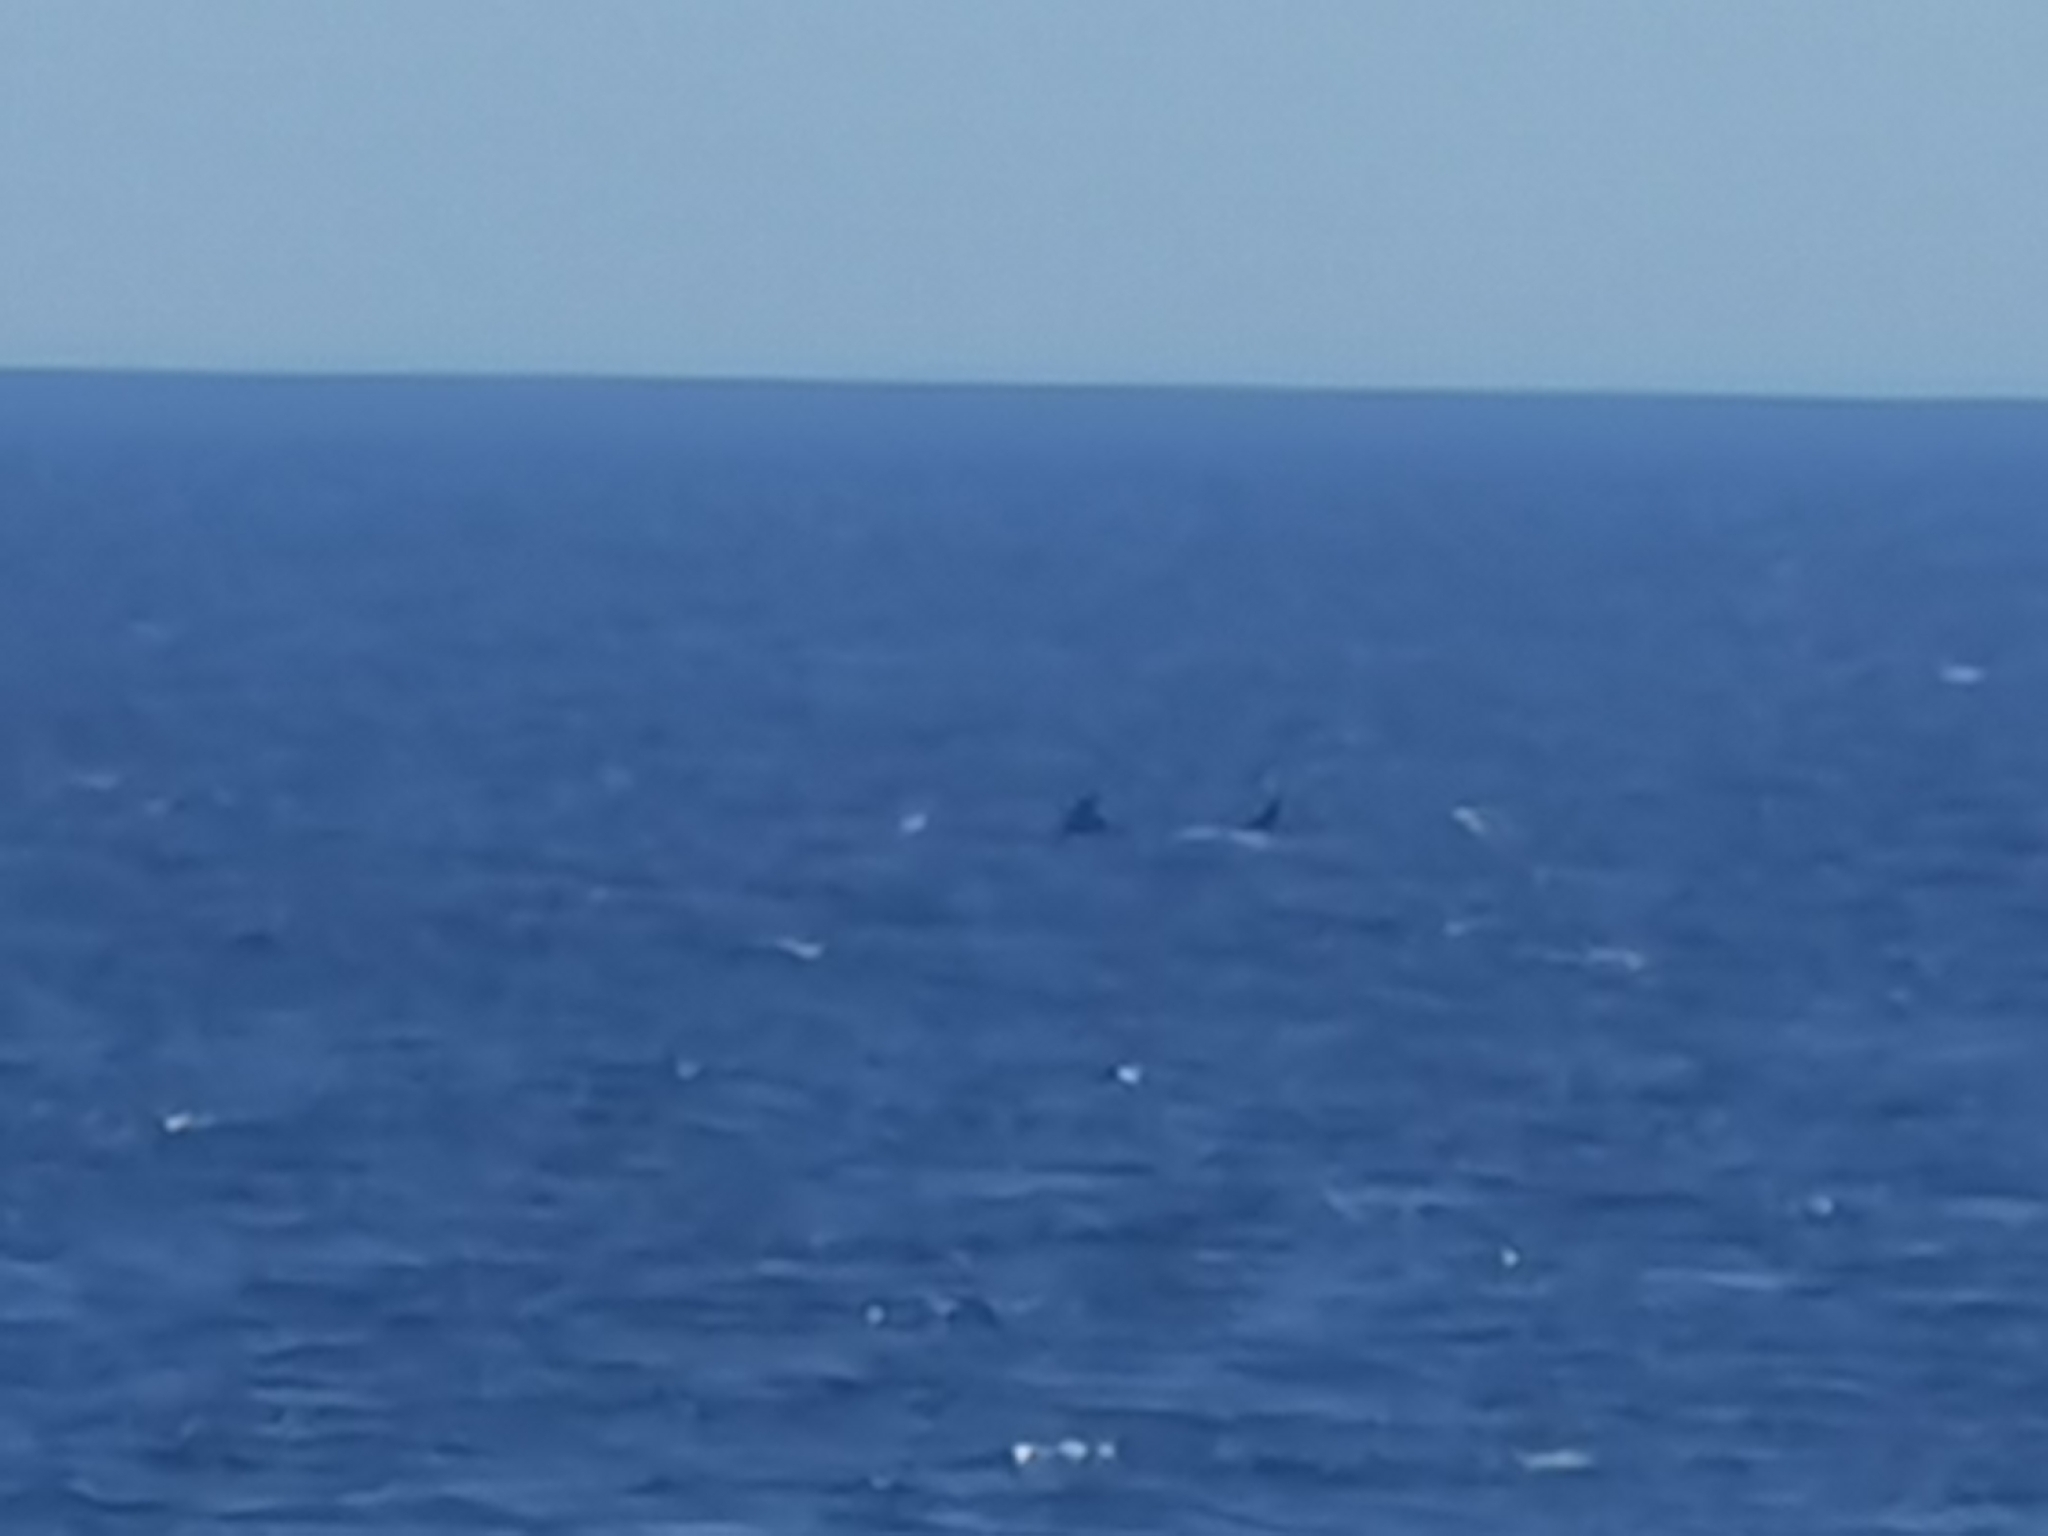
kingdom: Animalia
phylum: Chordata
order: Perciformes
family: Istiophoridae
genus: Tetrapturus
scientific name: Tetrapturus belone
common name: Mediterranean shortbill spearfish
